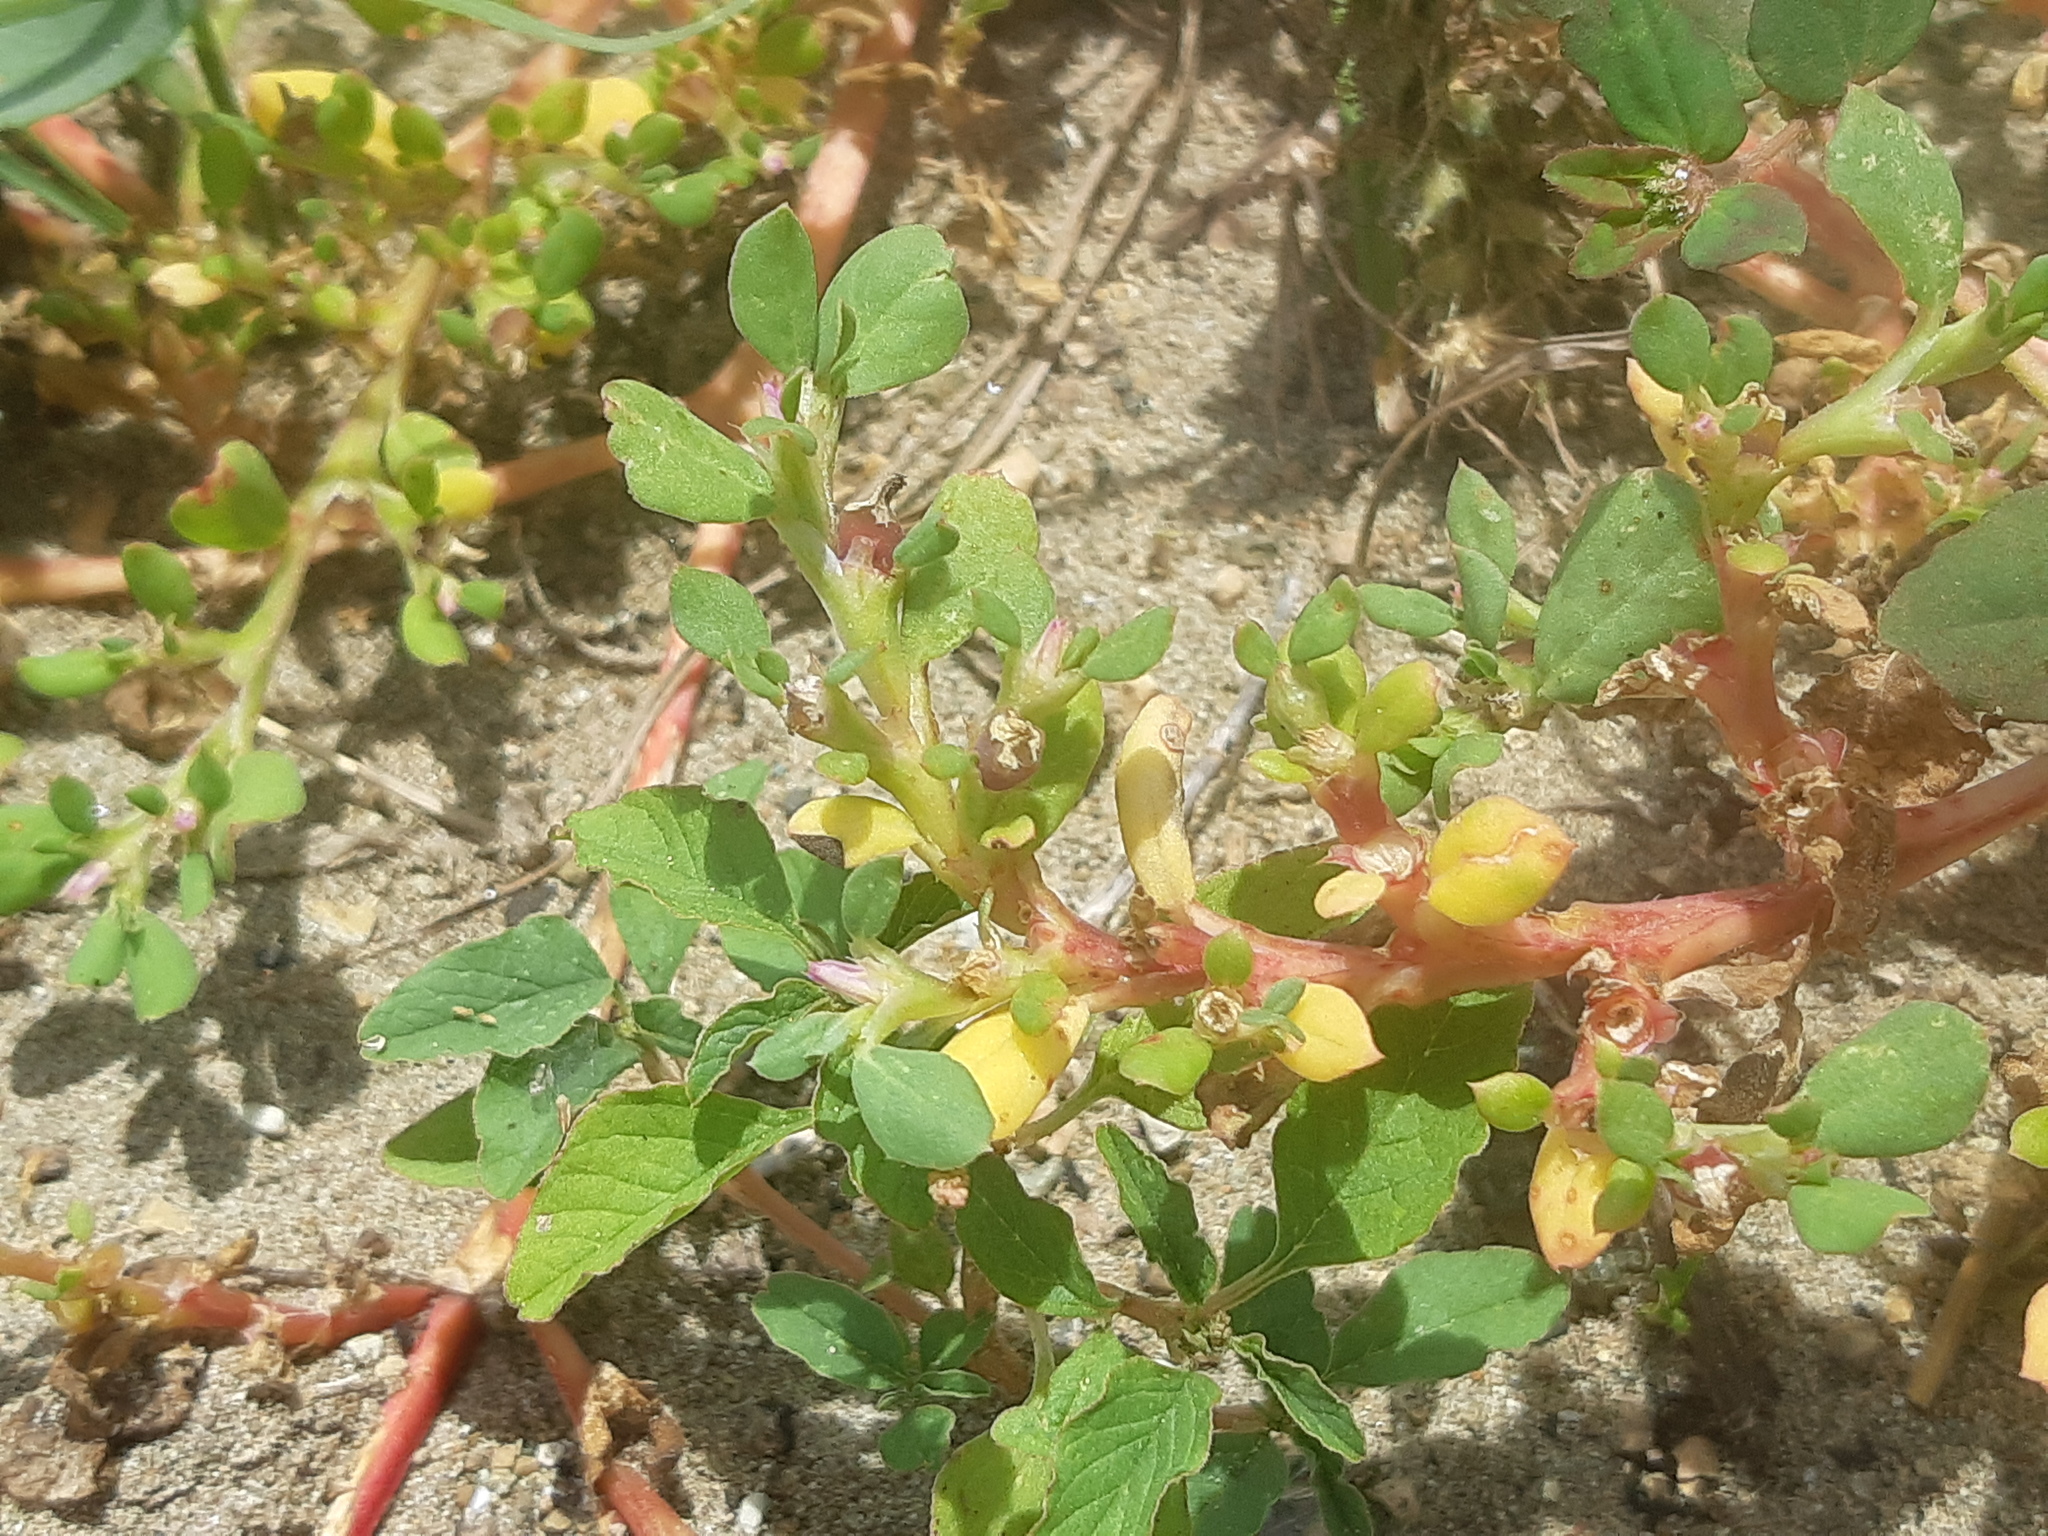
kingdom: Plantae
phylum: Tracheophyta
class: Magnoliopsida
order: Caryophyllales
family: Aizoaceae
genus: Trianthema
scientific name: Trianthema portulacastrum
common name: Desert horsepurslane
